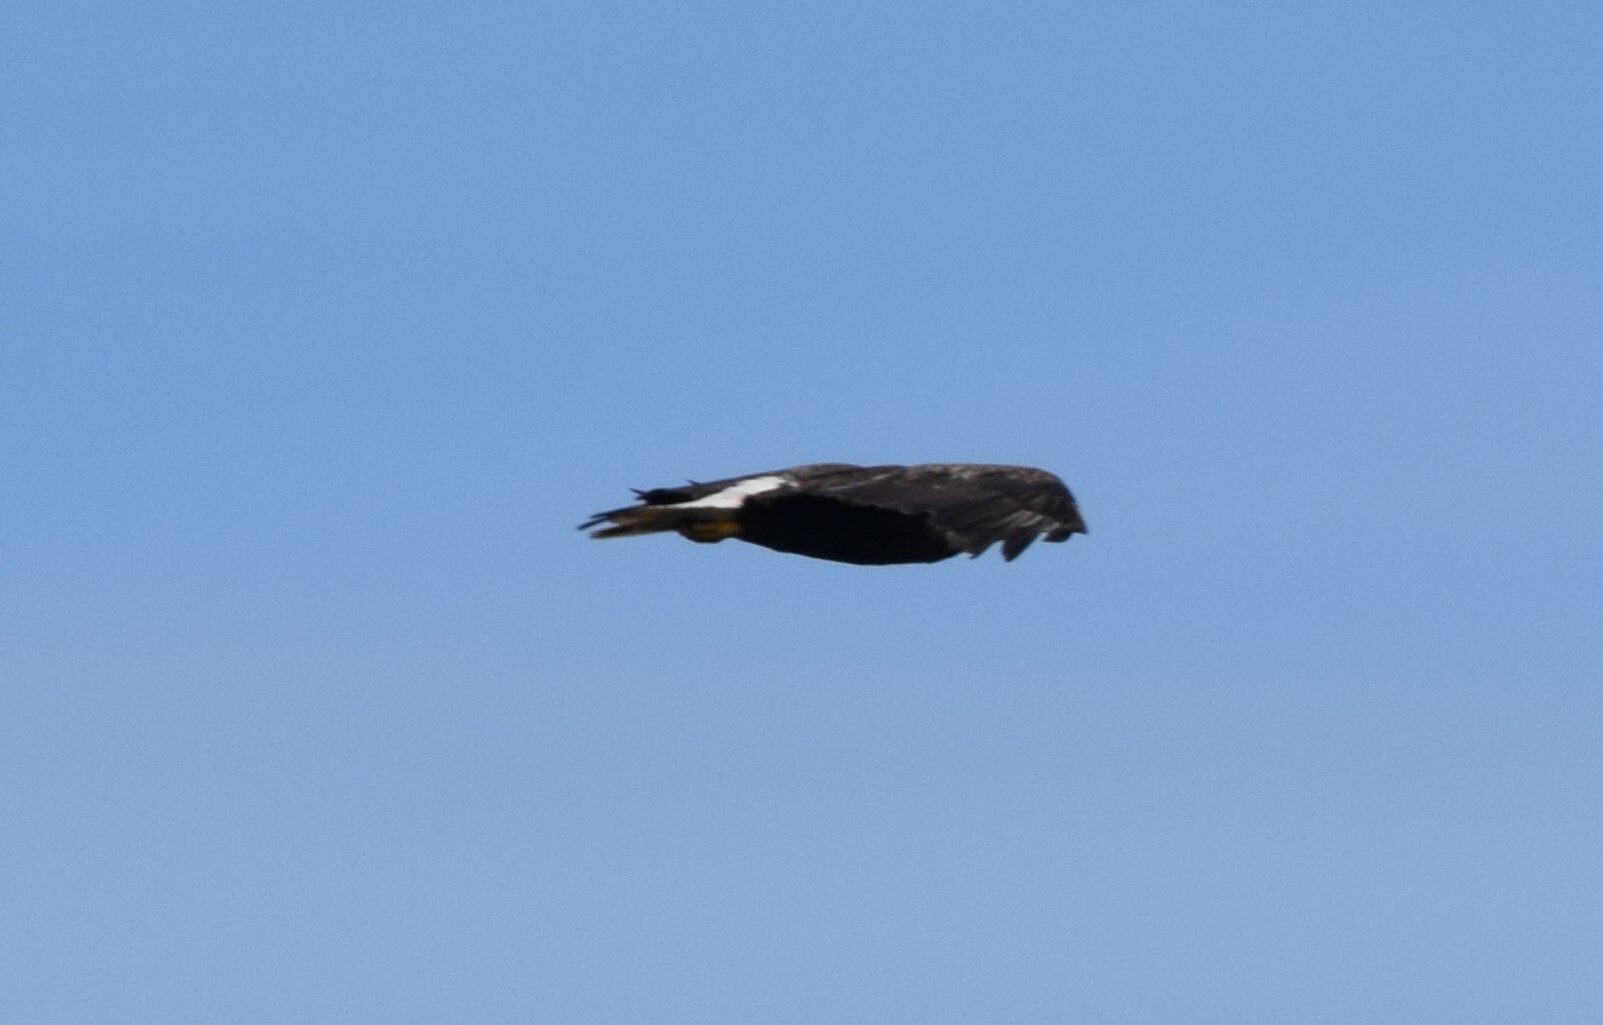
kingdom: Animalia
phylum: Chordata
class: Aves
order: Accipitriformes
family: Accipitridae
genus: Haliaeetus
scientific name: Haliaeetus leucocephalus
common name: Bald eagle
